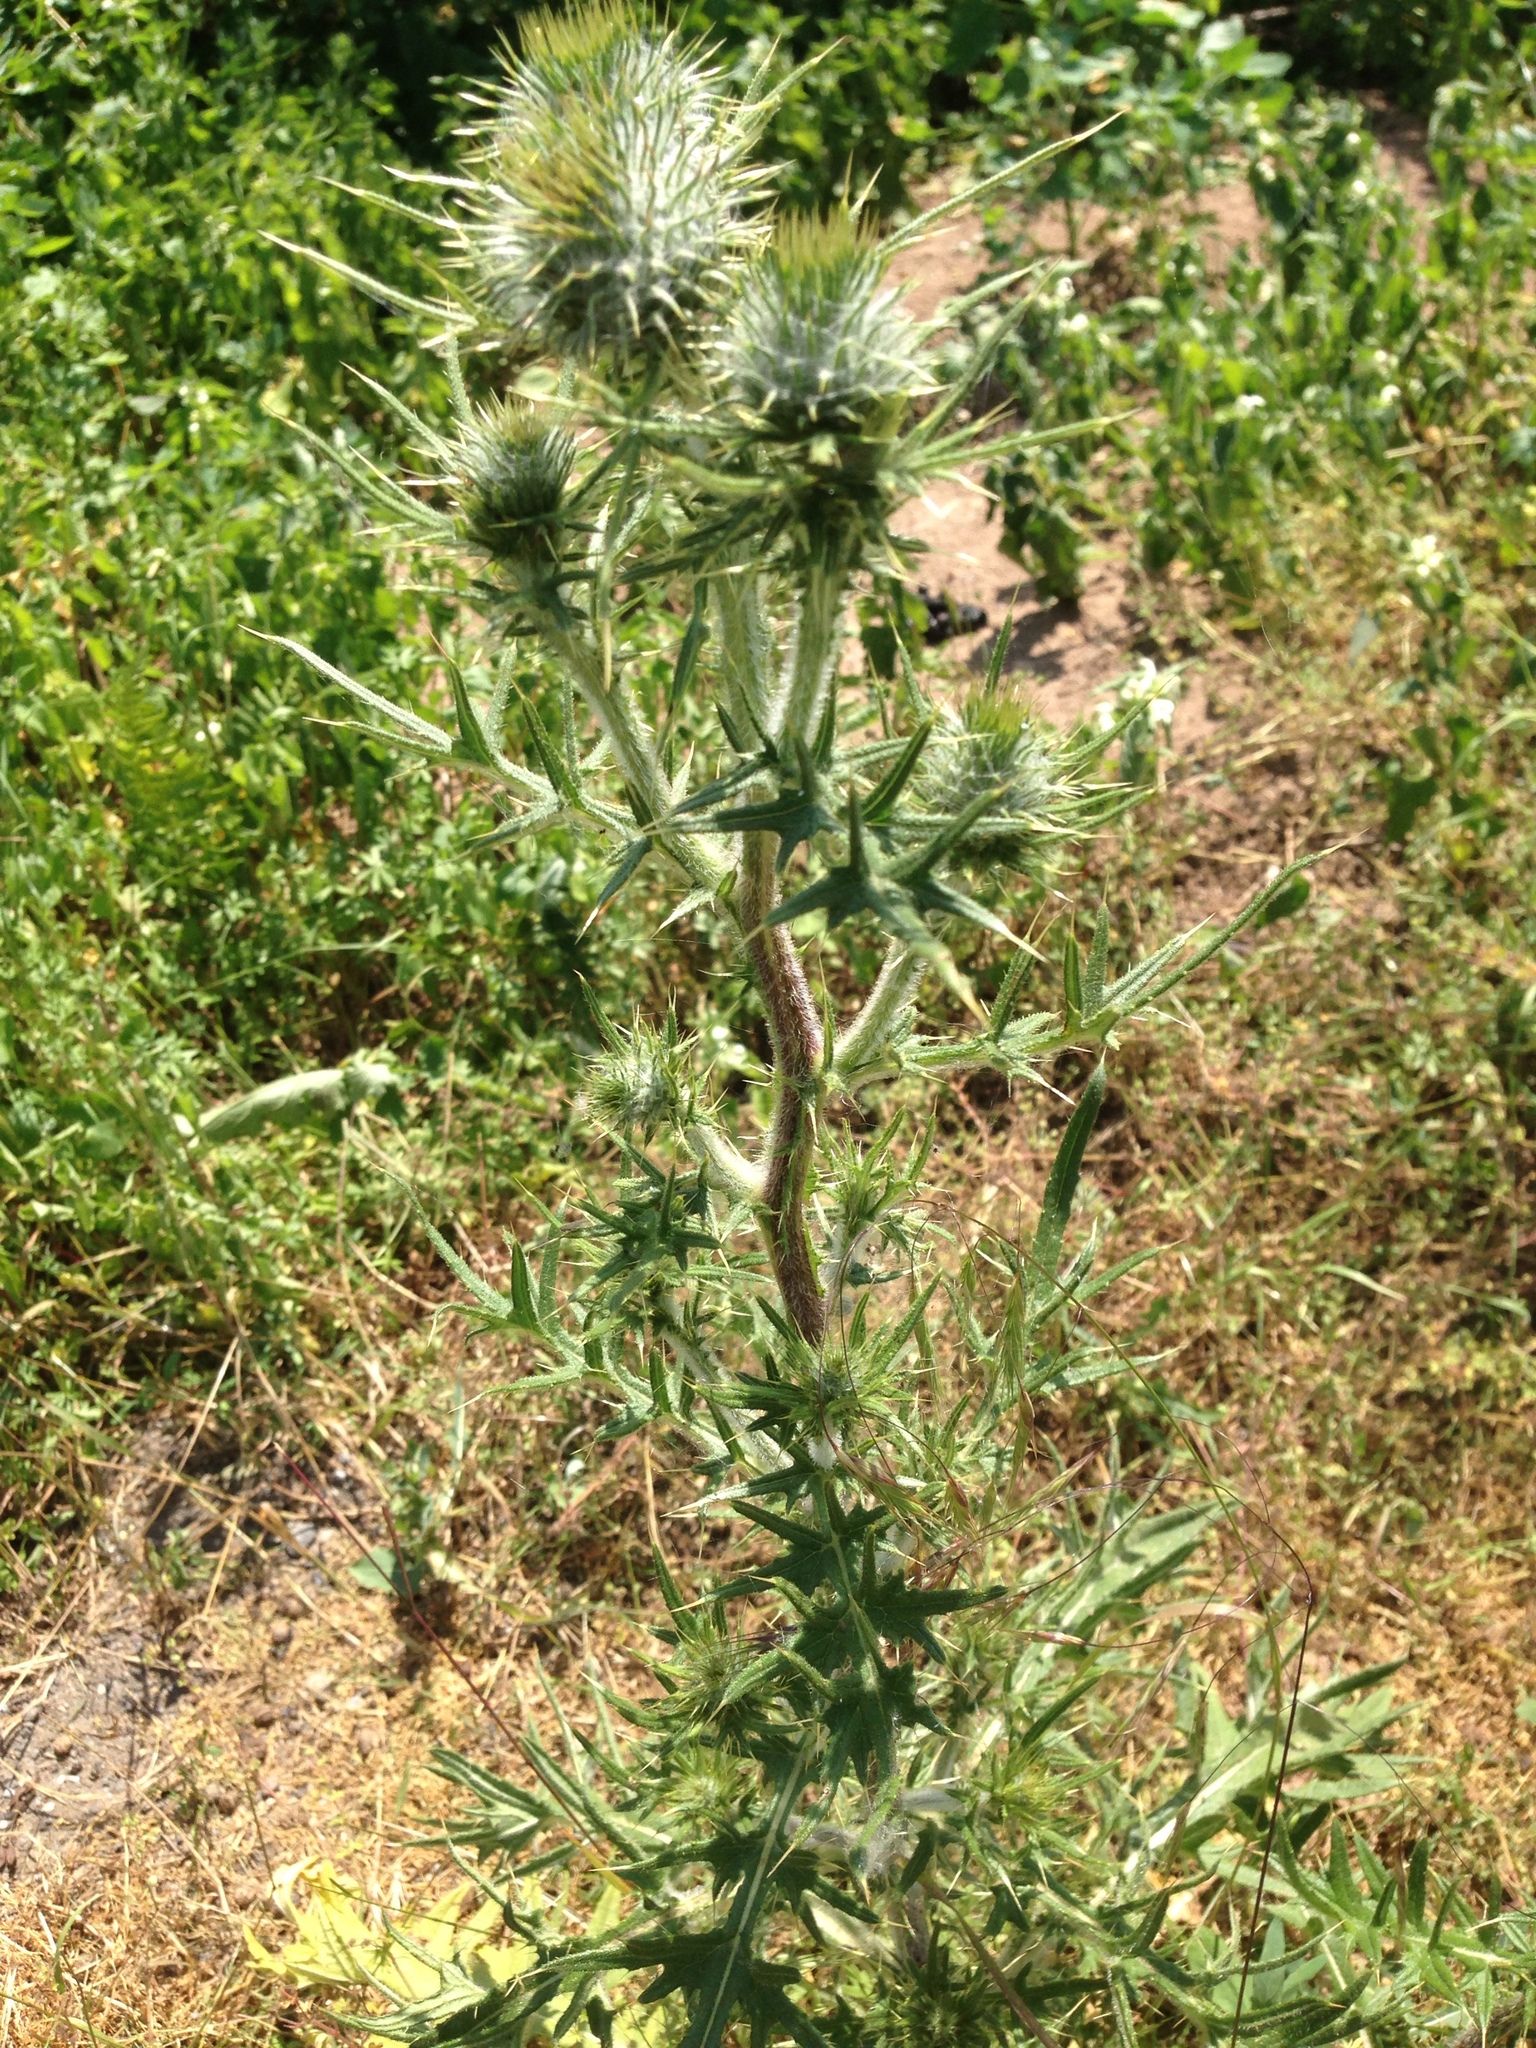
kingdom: Plantae
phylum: Tracheophyta
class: Magnoliopsida
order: Asterales
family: Asteraceae
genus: Cirsium
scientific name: Cirsium vulgare
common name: Bull thistle
